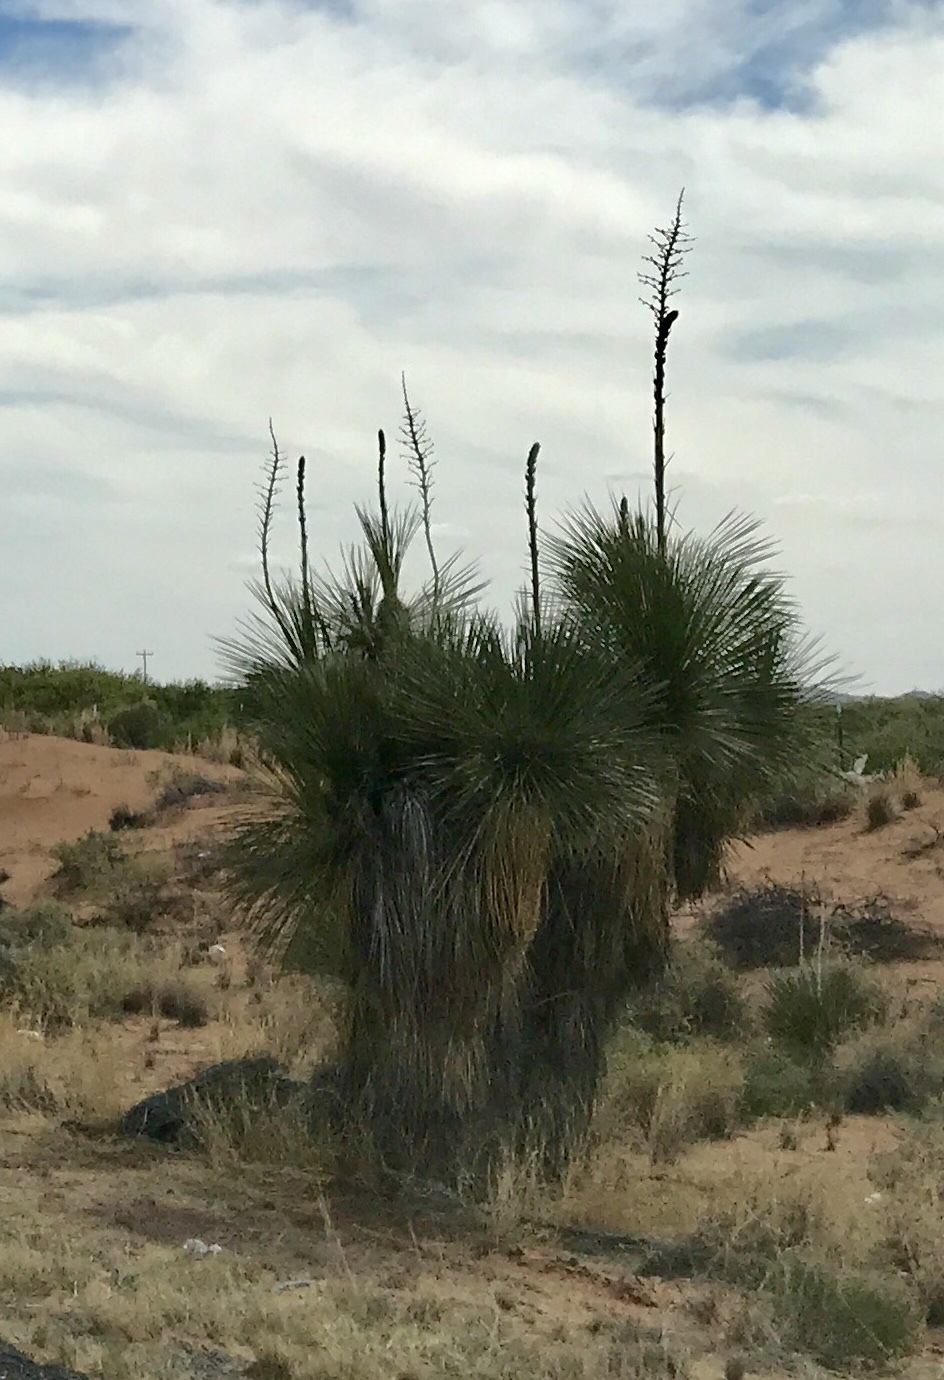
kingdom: Plantae
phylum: Tracheophyta
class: Liliopsida
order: Asparagales
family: Asparagaceae
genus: Yucca
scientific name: Yucca elata
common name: Palmella
